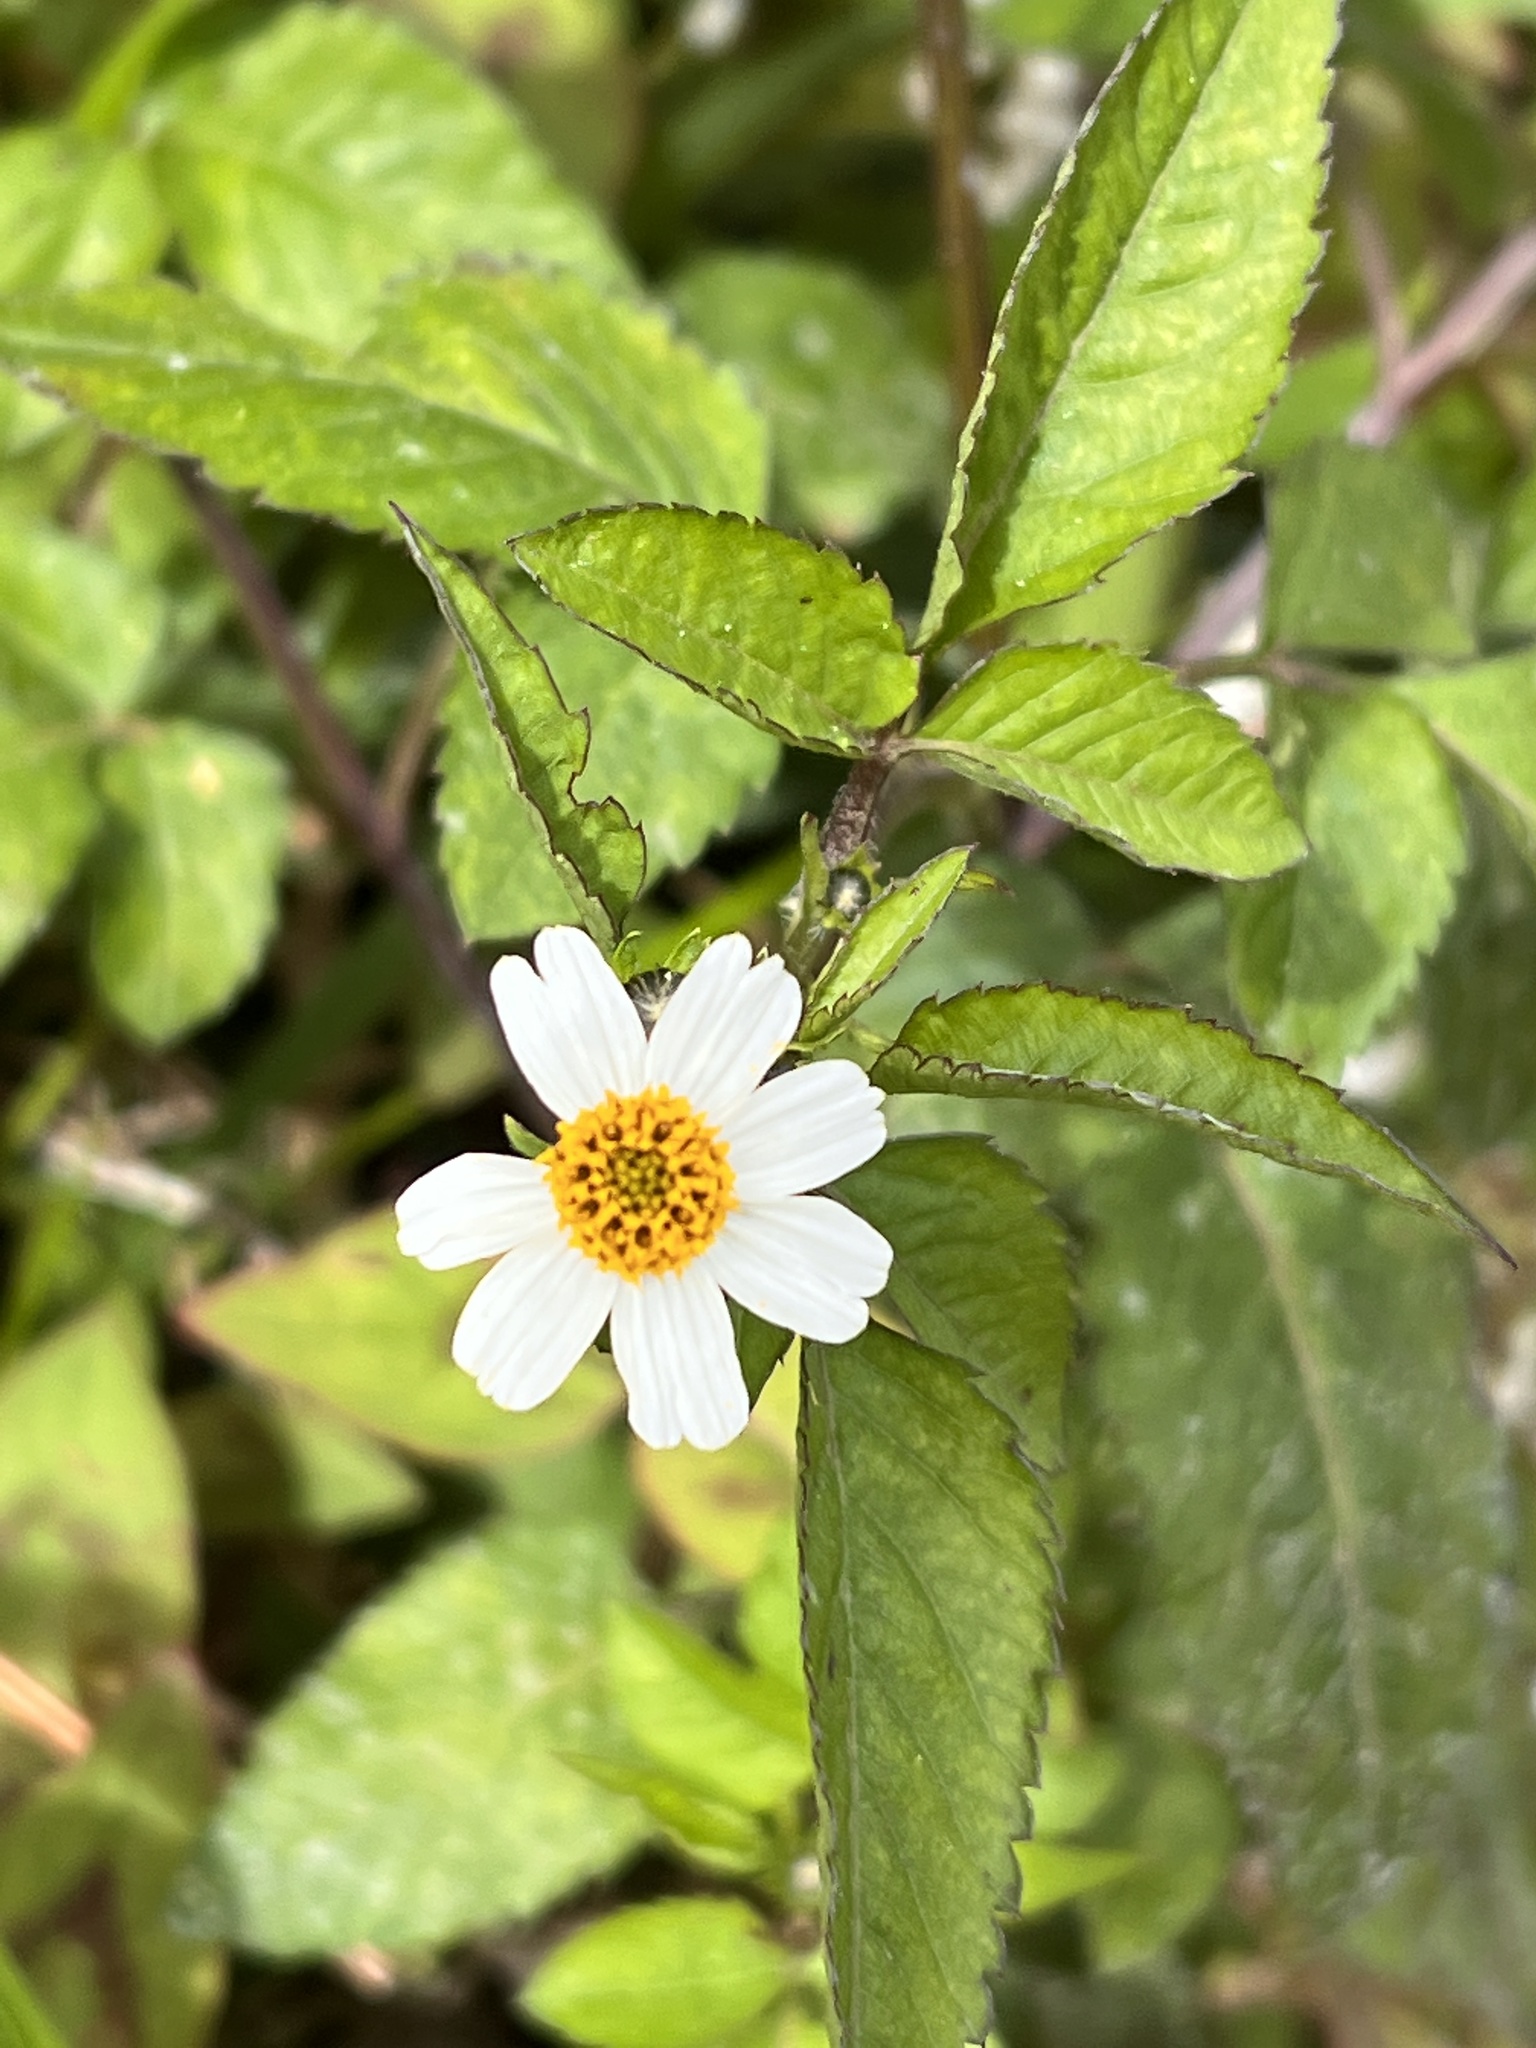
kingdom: Plantae
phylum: Tracheophyta
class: Magnoliopsida
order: Asterales
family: Asteraceae
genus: Bidens
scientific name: Bidens pilosa
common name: Black-jack
